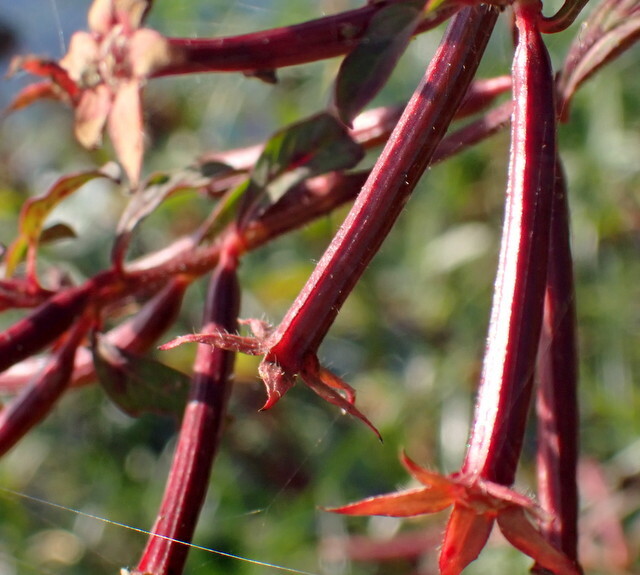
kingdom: Plantae
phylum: Tracheophyta
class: Magnoliopsida
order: Myrtales
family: Onagraceae
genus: Ludwigia
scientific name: Ludwigia leptocarpa
